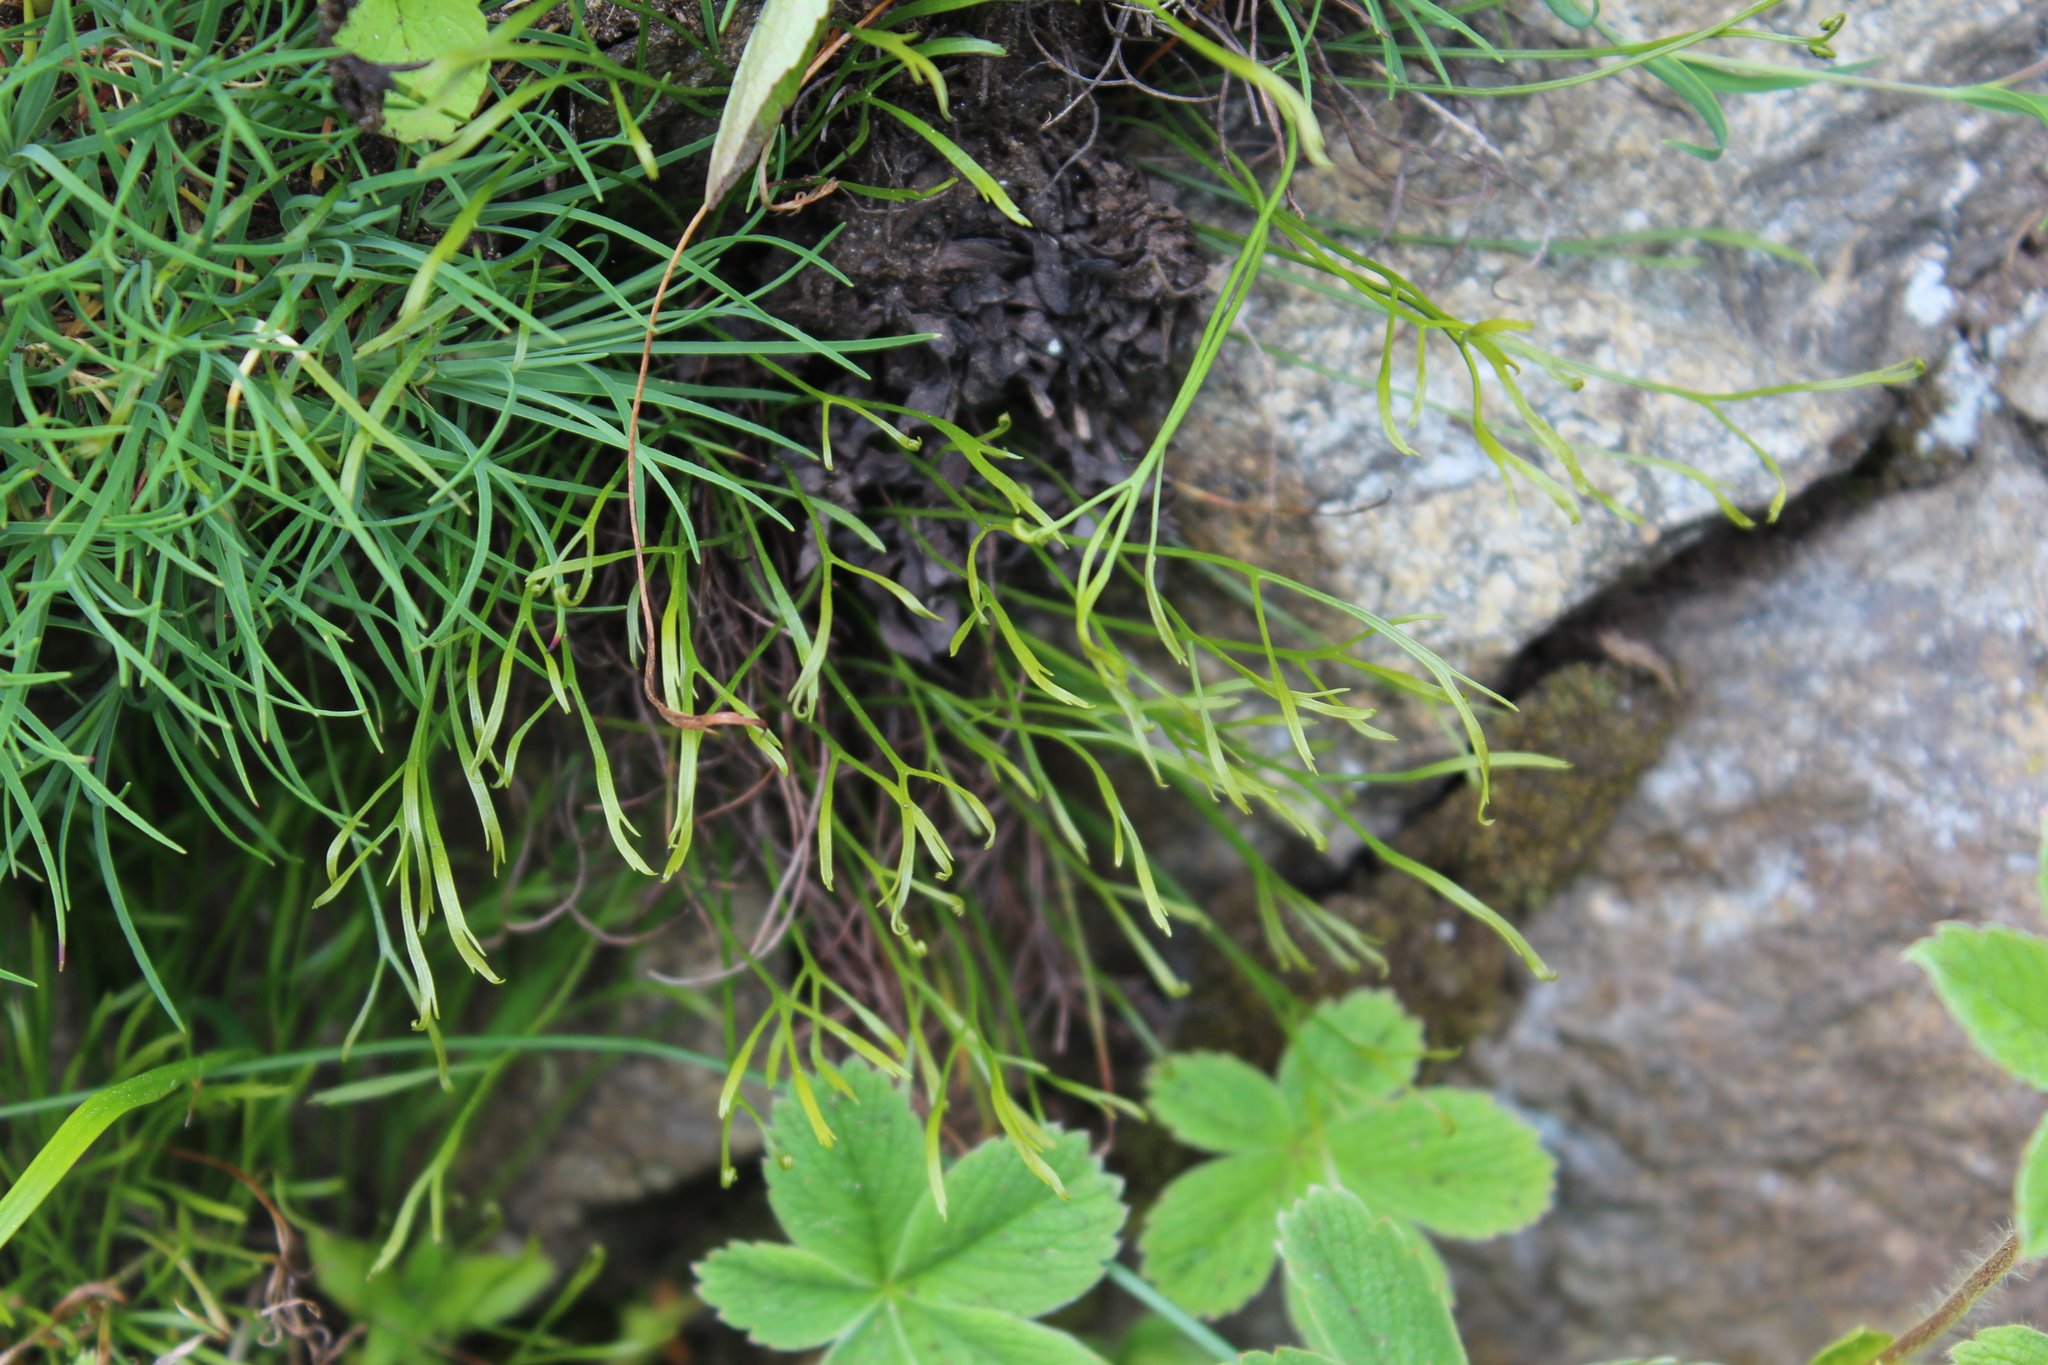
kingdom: Plantae
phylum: Tracheophyta
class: Polypodiopsida
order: Polypodiales
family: Aspleniaceae
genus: Asplenium
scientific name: Asplenium septentrionale
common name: Forked spleenwort
